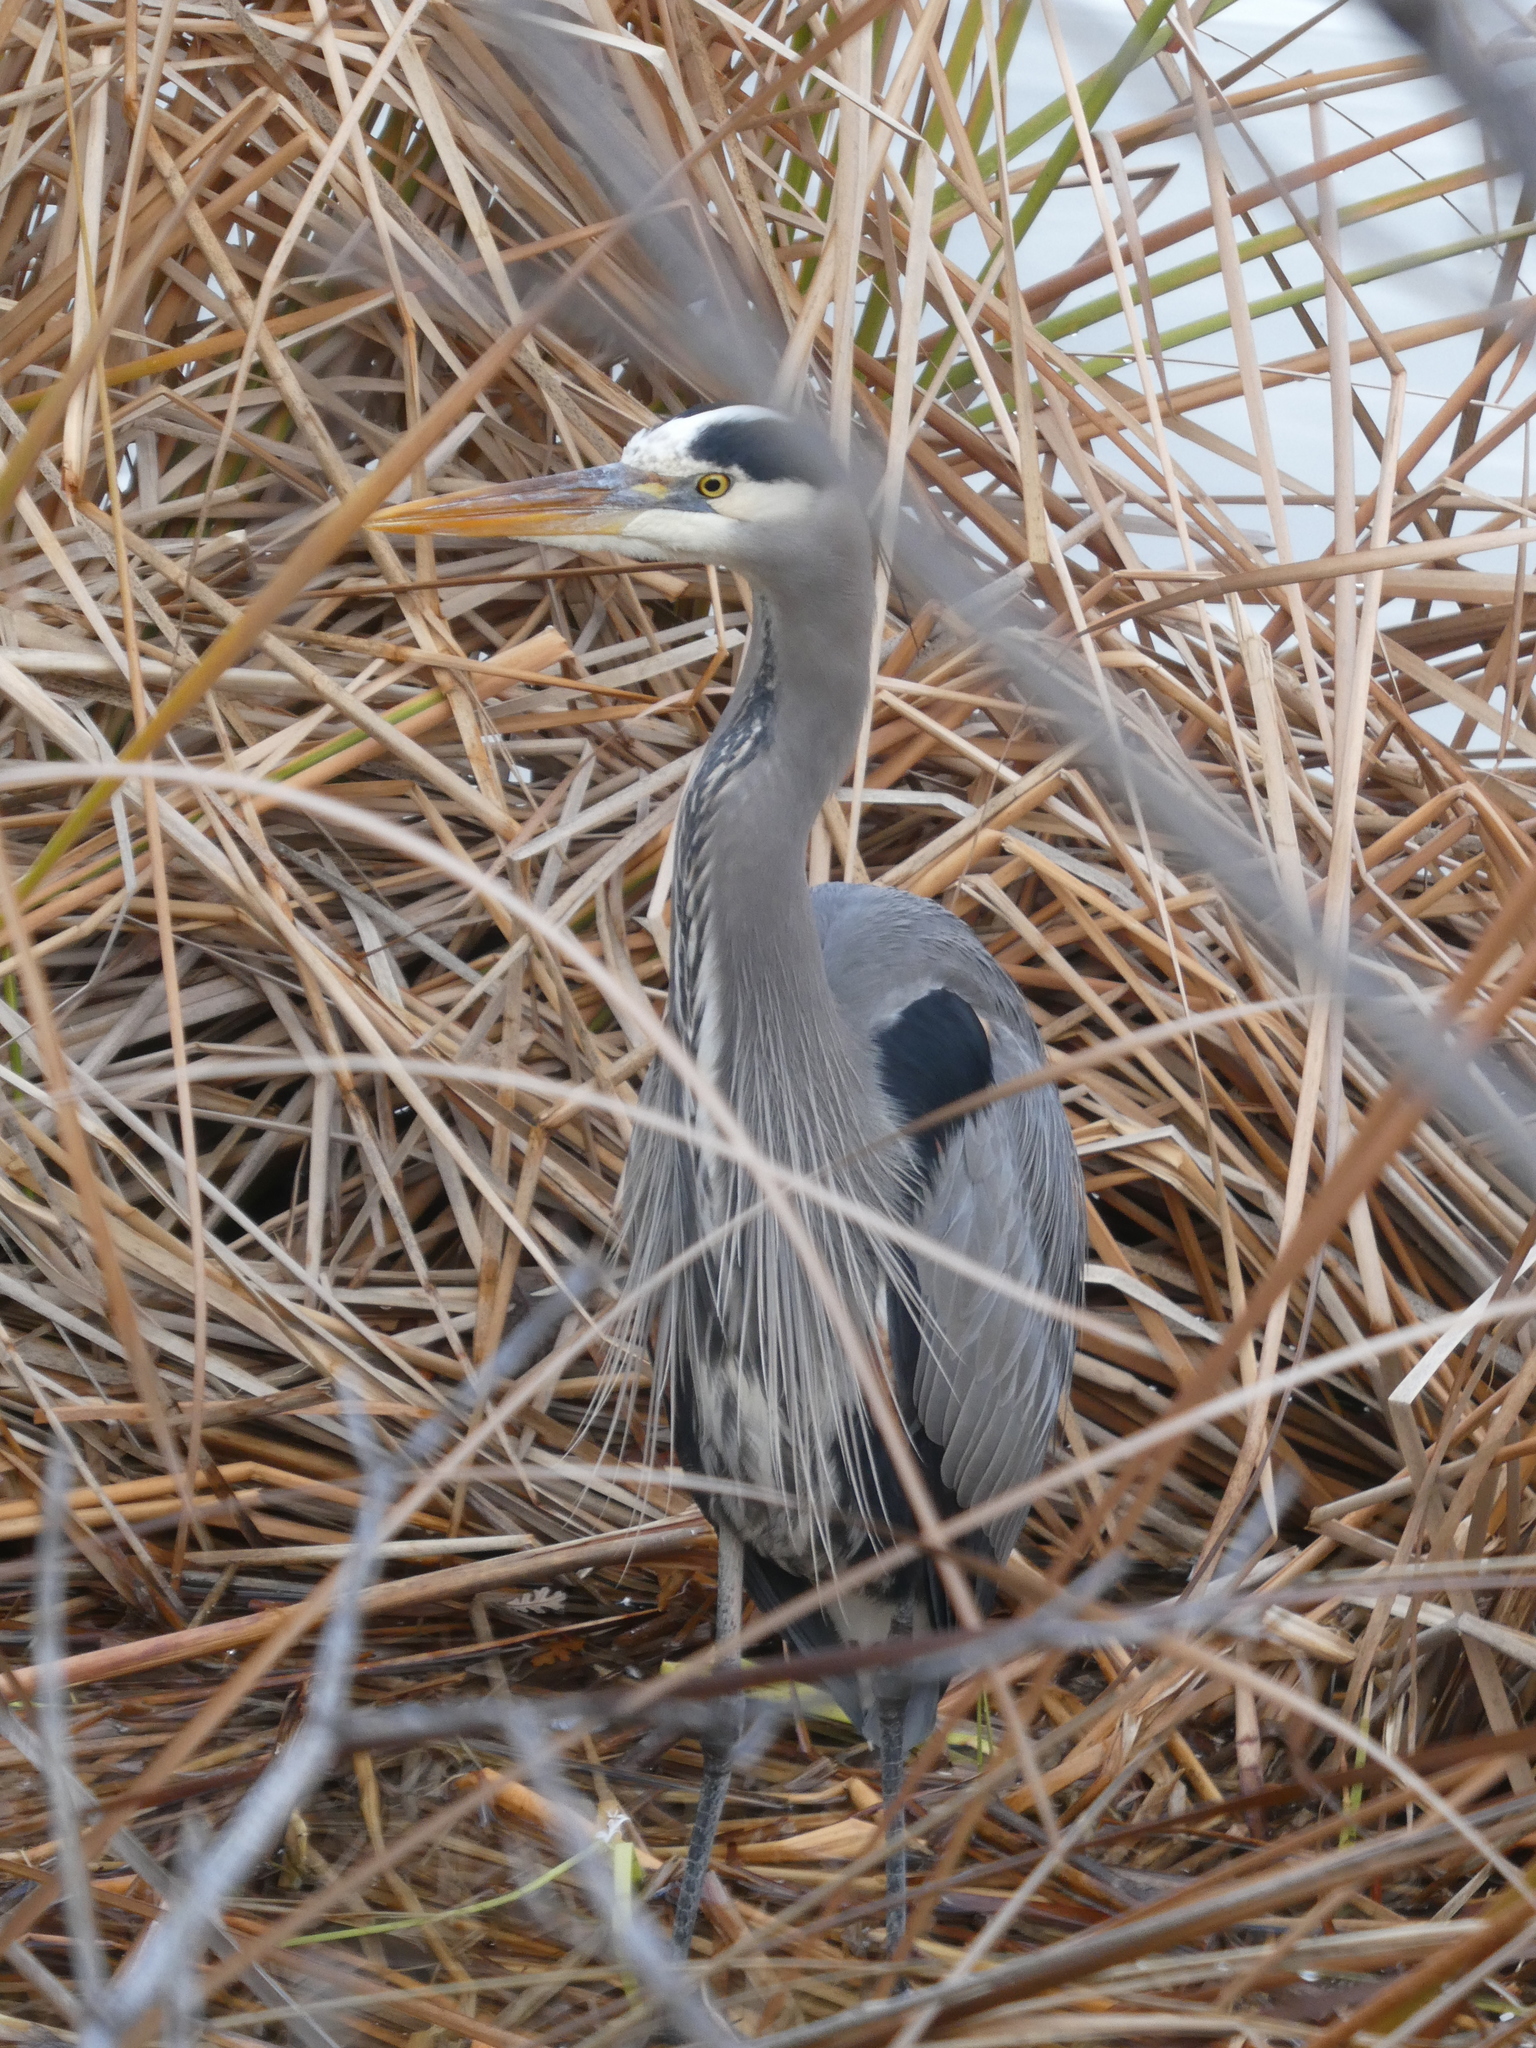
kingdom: Animalia
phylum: Chordata
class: Aves
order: Pelecaniformes
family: Ardeidae
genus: Ardea
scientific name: Ardea herodias
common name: Great blue heron
